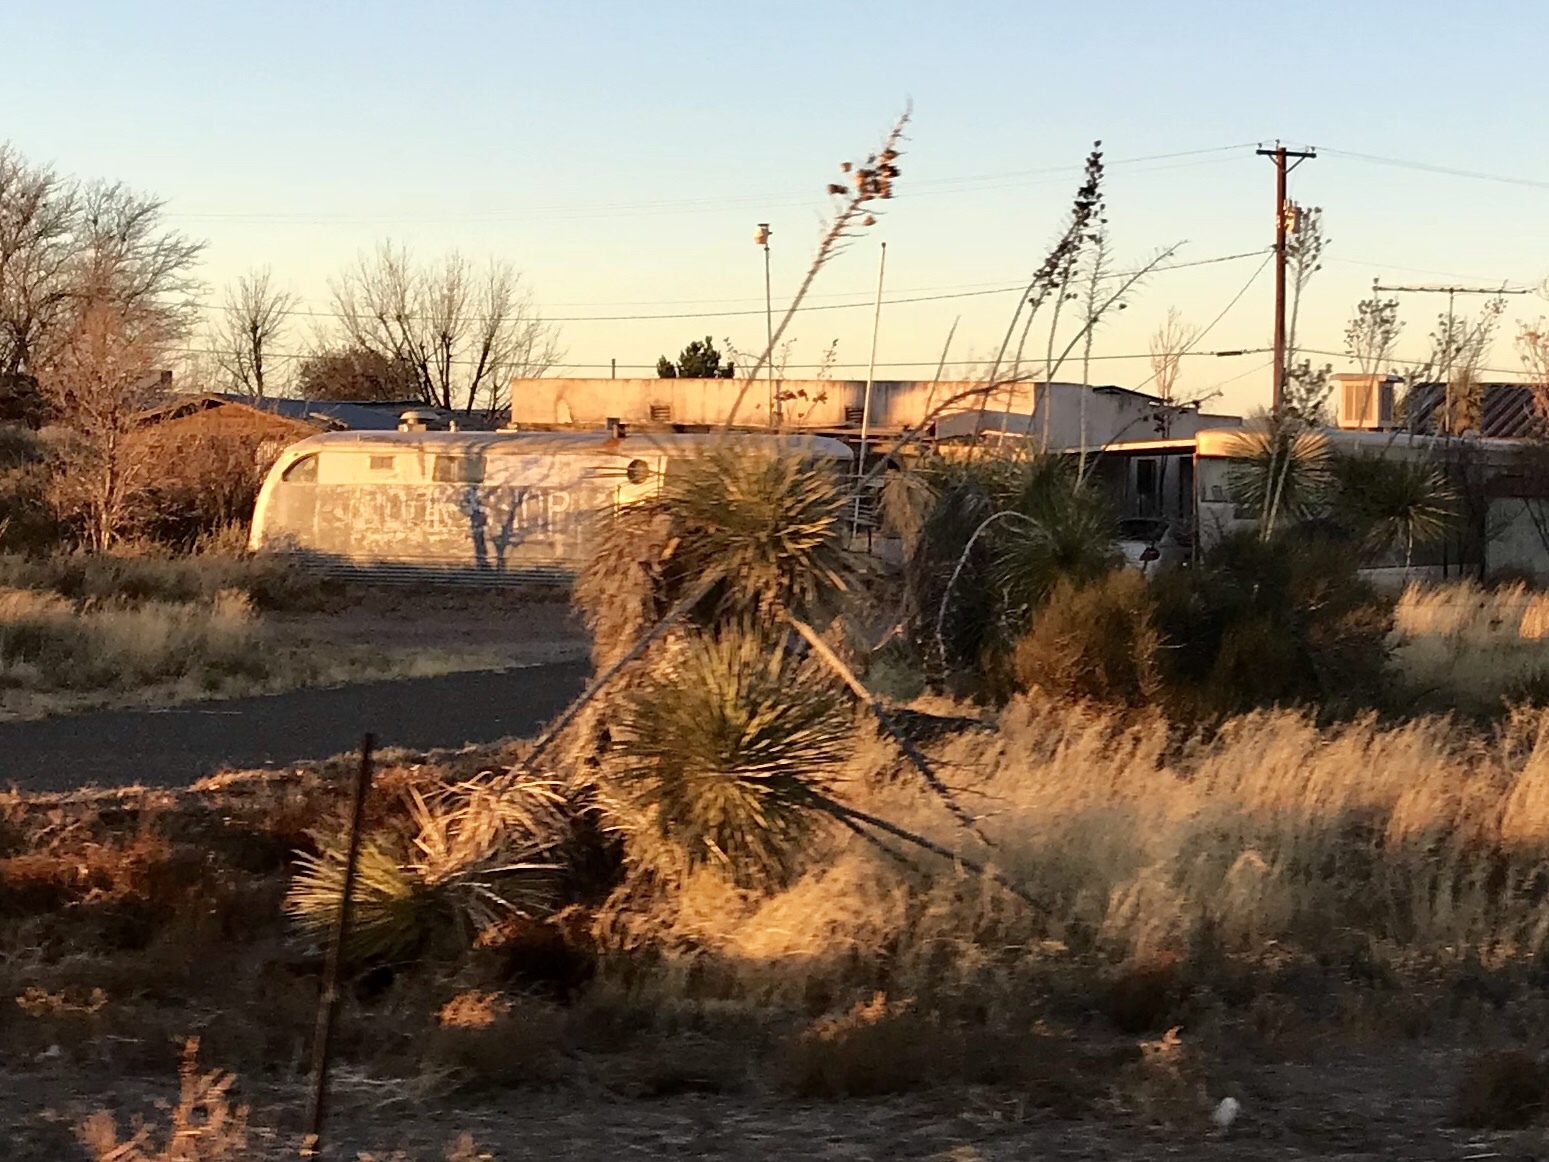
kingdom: Plantae
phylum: Tracheophyta
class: Liliopsida
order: Asparagales
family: Asparagaceae
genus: Yucca
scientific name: Yucca elata
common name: Palmella
